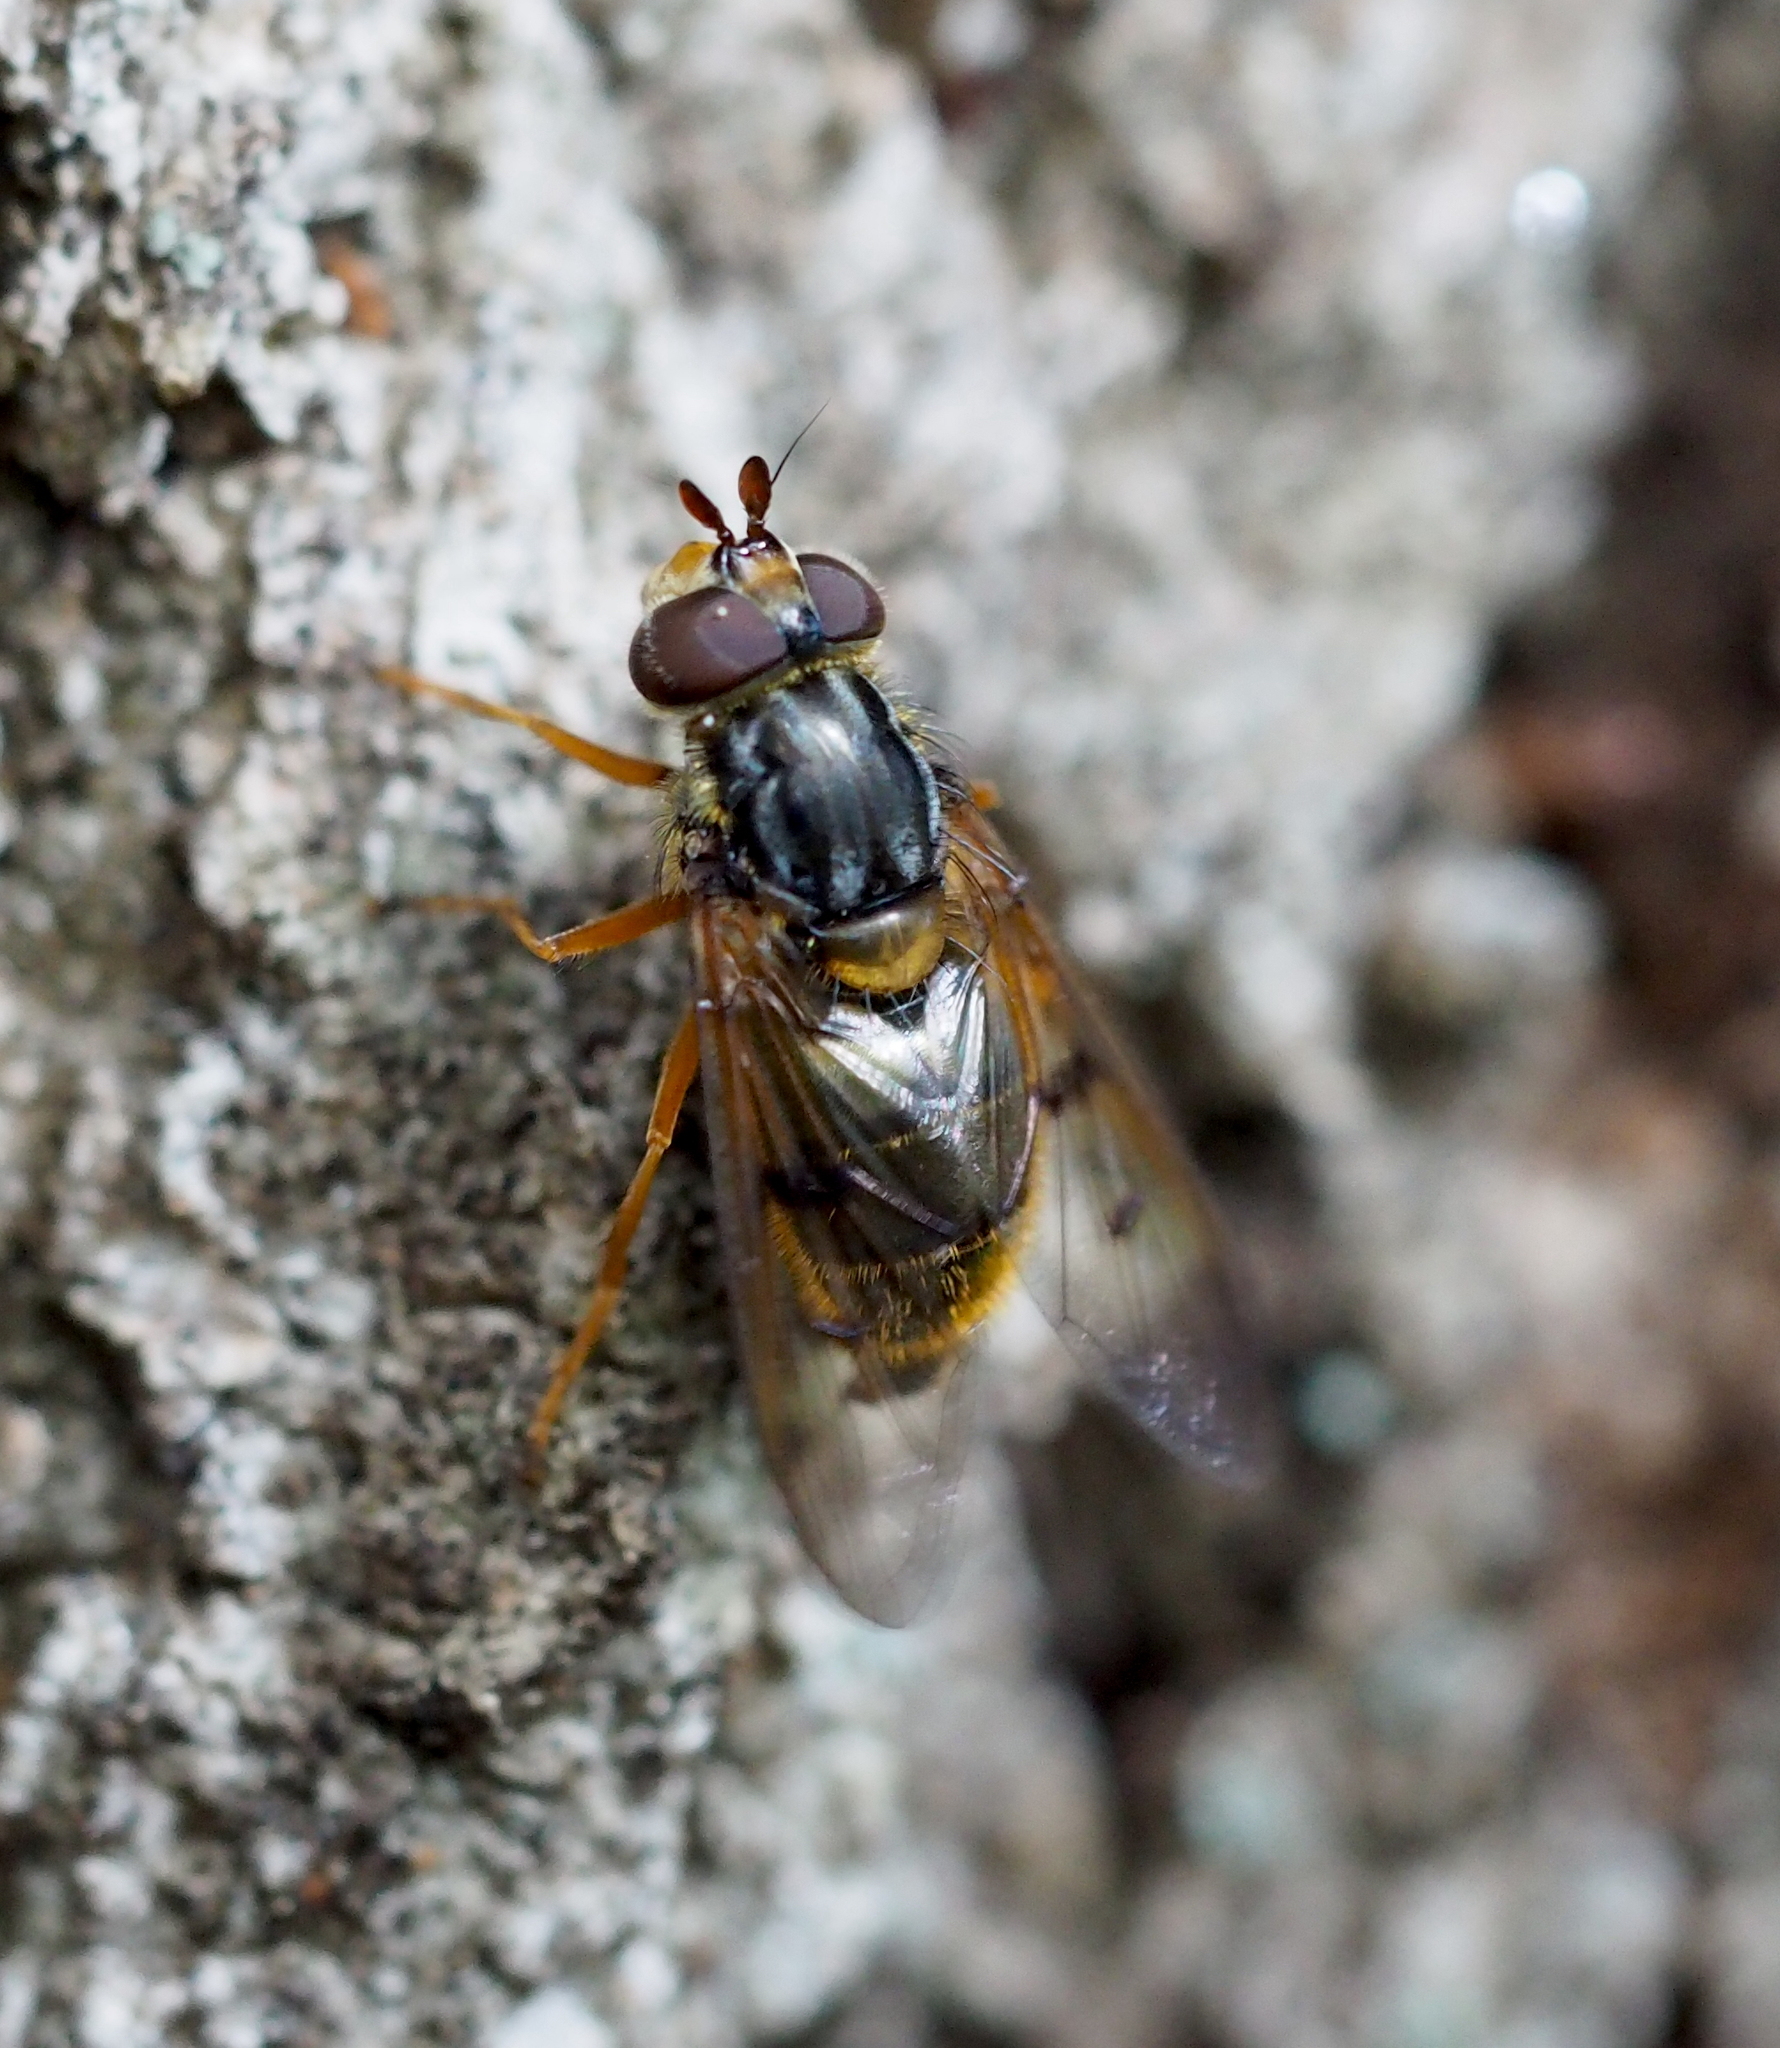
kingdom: Animalia
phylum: Arthropoda
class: Insecta
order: Diptera
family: Syrphidae
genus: Ferdinandea
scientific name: Ferdinandea cuprea
